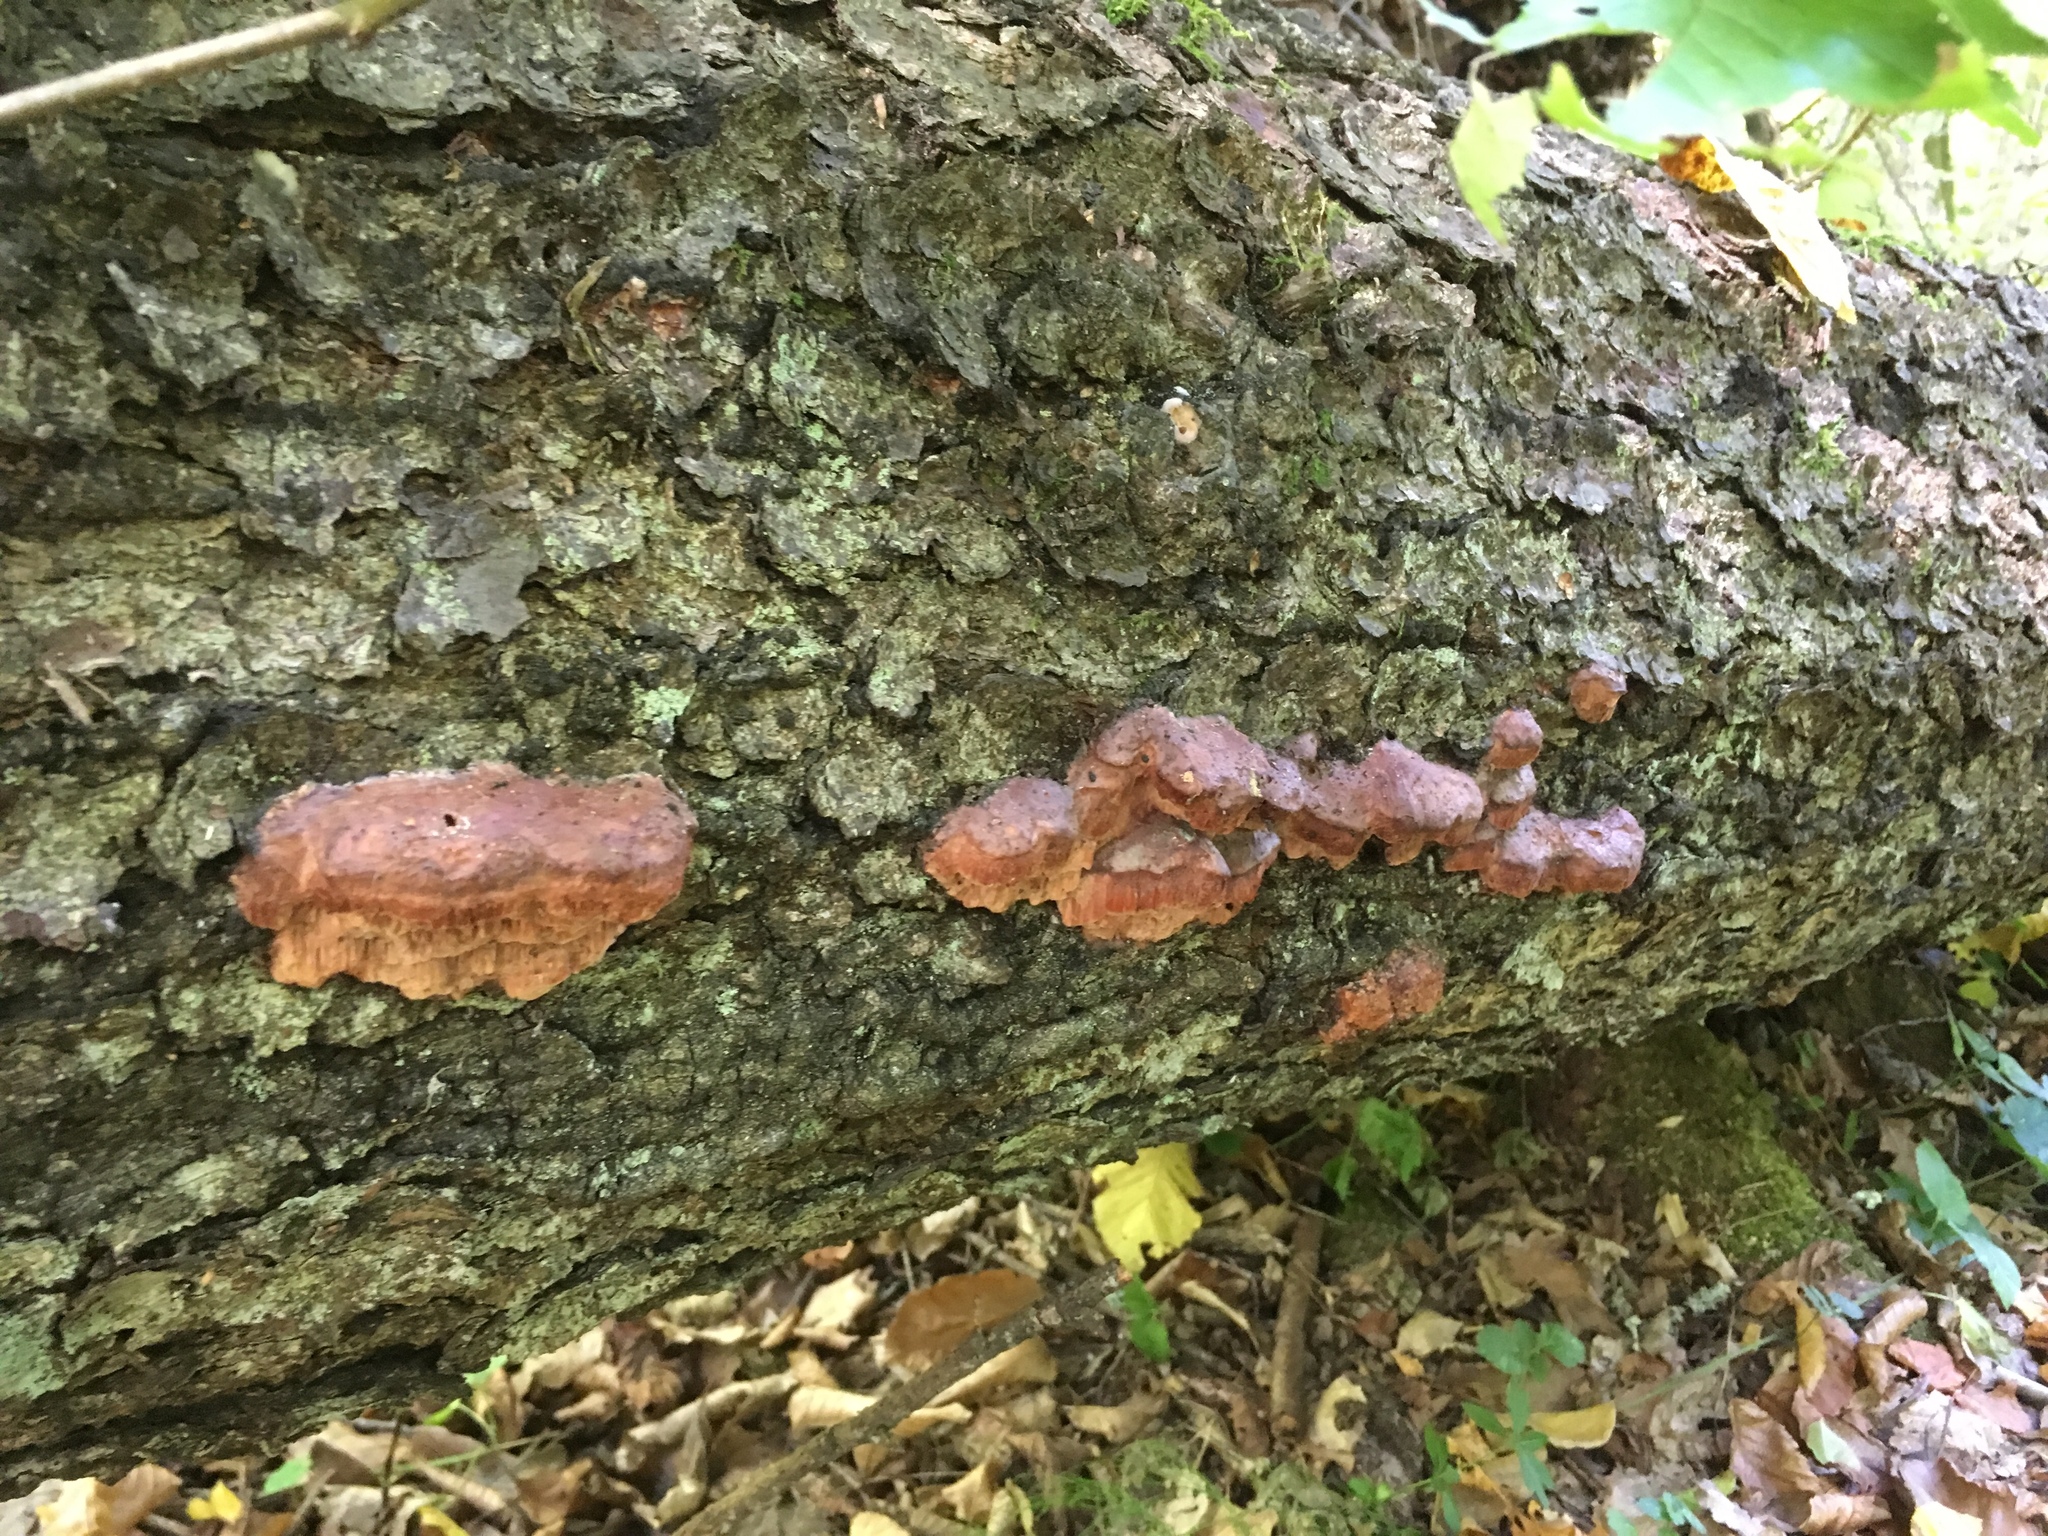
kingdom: Fungi
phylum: Basidiomycota
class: Agaricomycetes
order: Polyporales
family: Irpicaceae
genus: Leptoporus
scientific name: Leptoporus mollis
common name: Soft bracket
